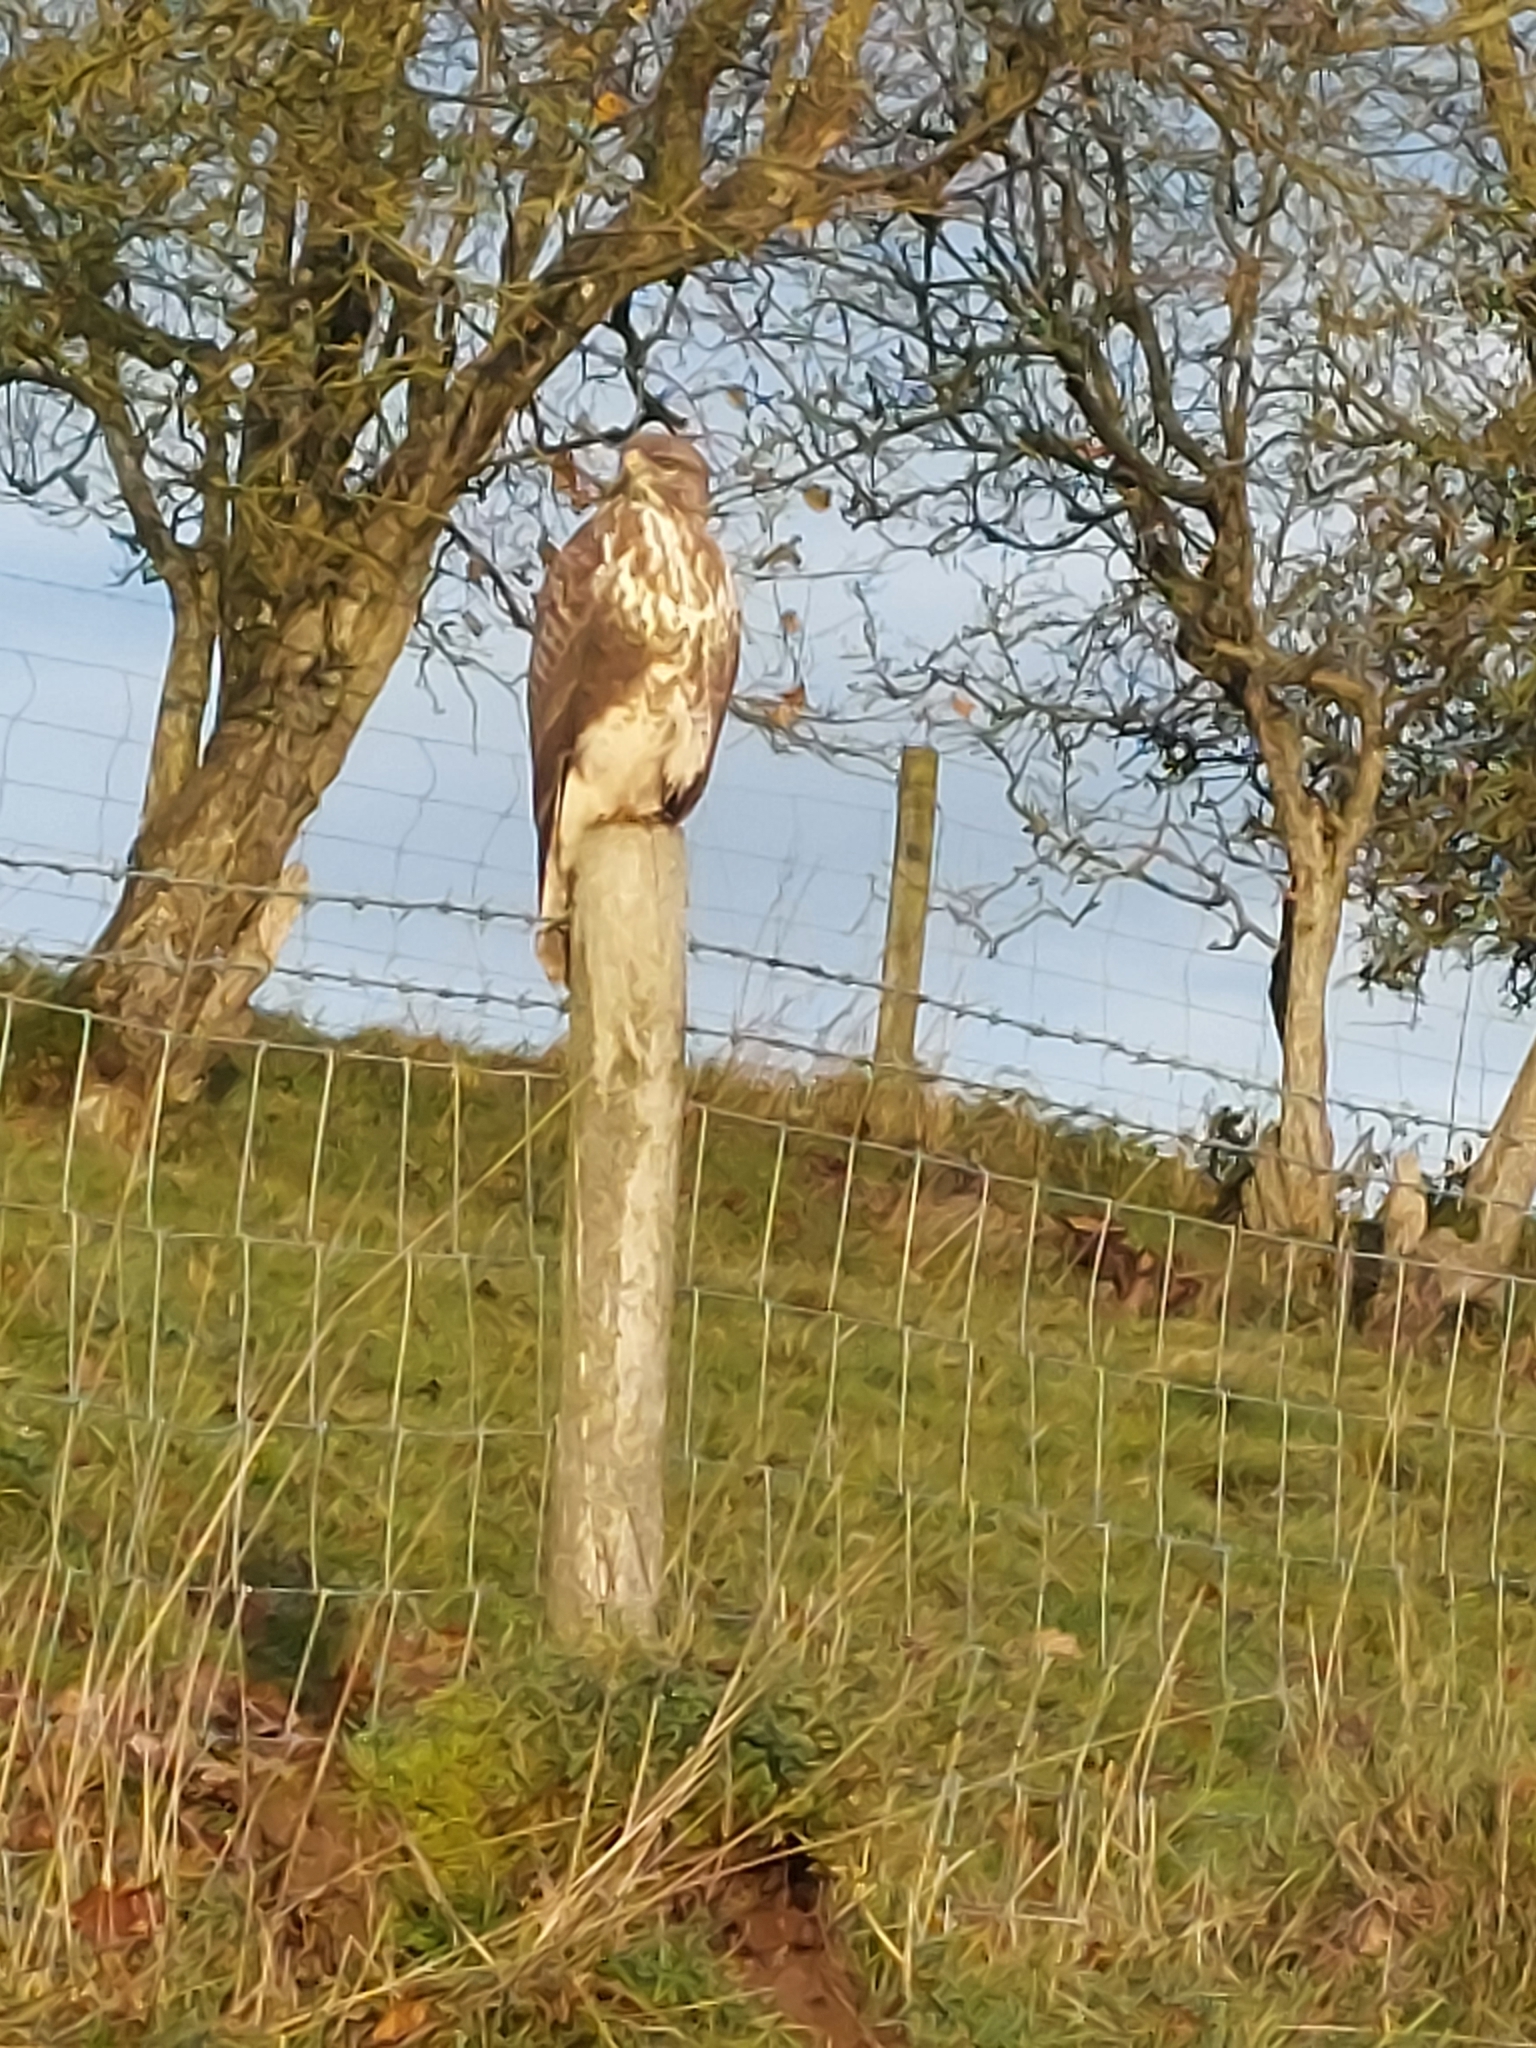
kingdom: Animalia
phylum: Chordata
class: Aves
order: Accipitriformes
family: Accipitridae
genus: Buteo
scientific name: Buteo buteo
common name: Common buzzard
